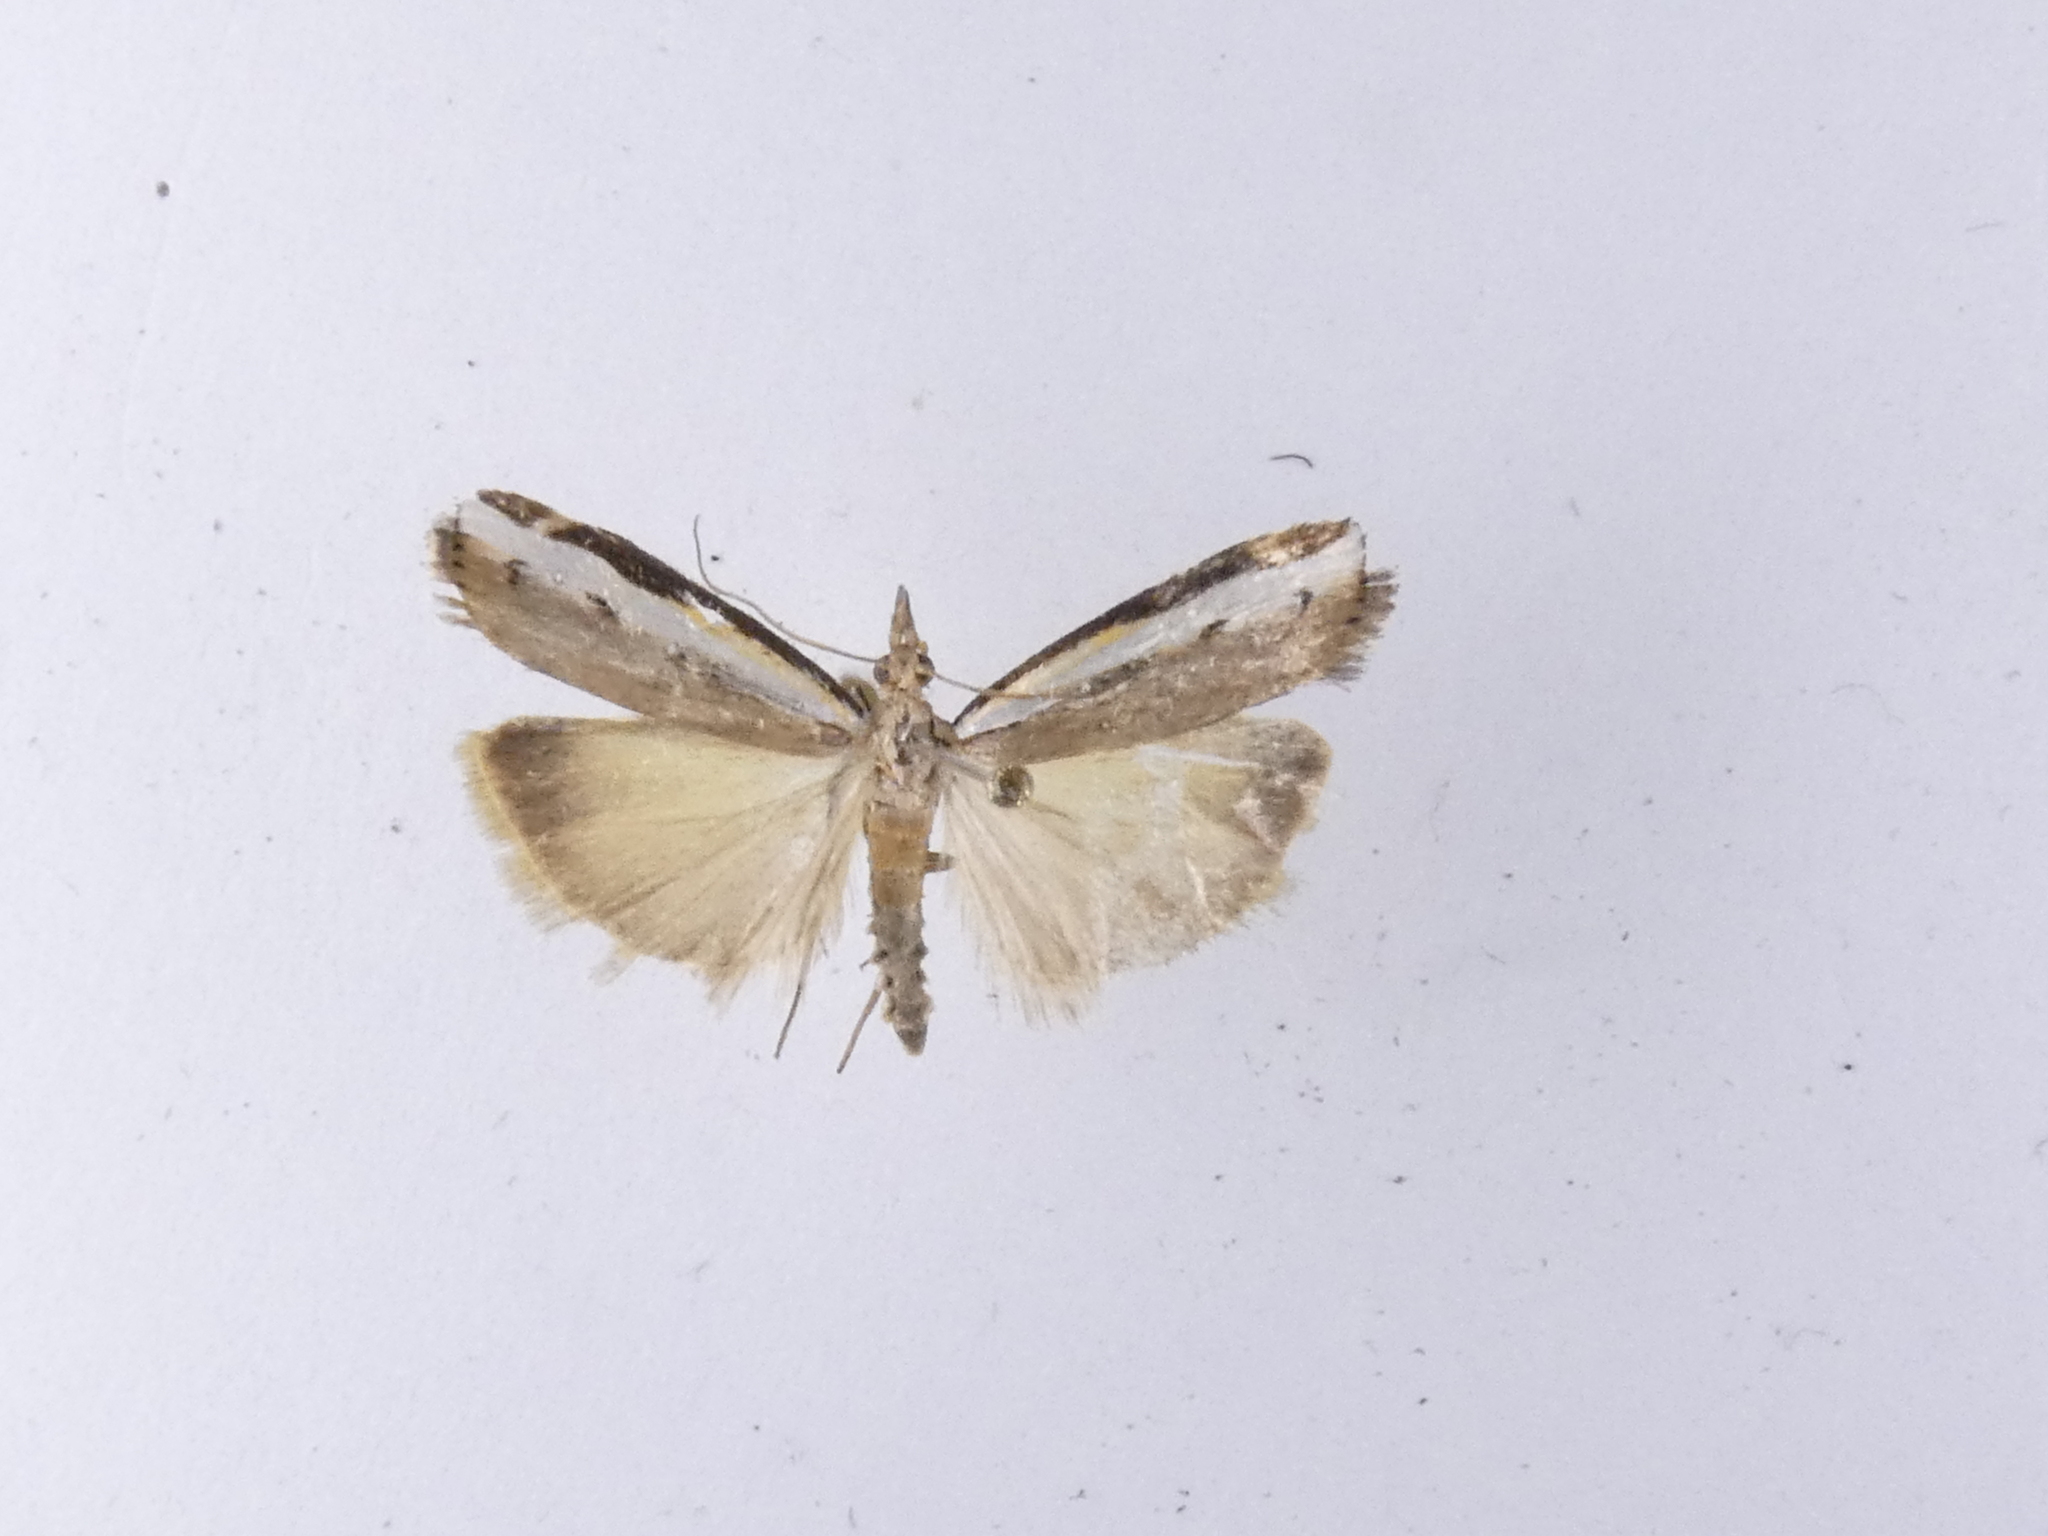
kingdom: Animalia
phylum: Arthropoda
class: Insecta
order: Lepidoptera
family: Crambidae
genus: Orocrambus
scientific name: Orocrambus flexuosellus
